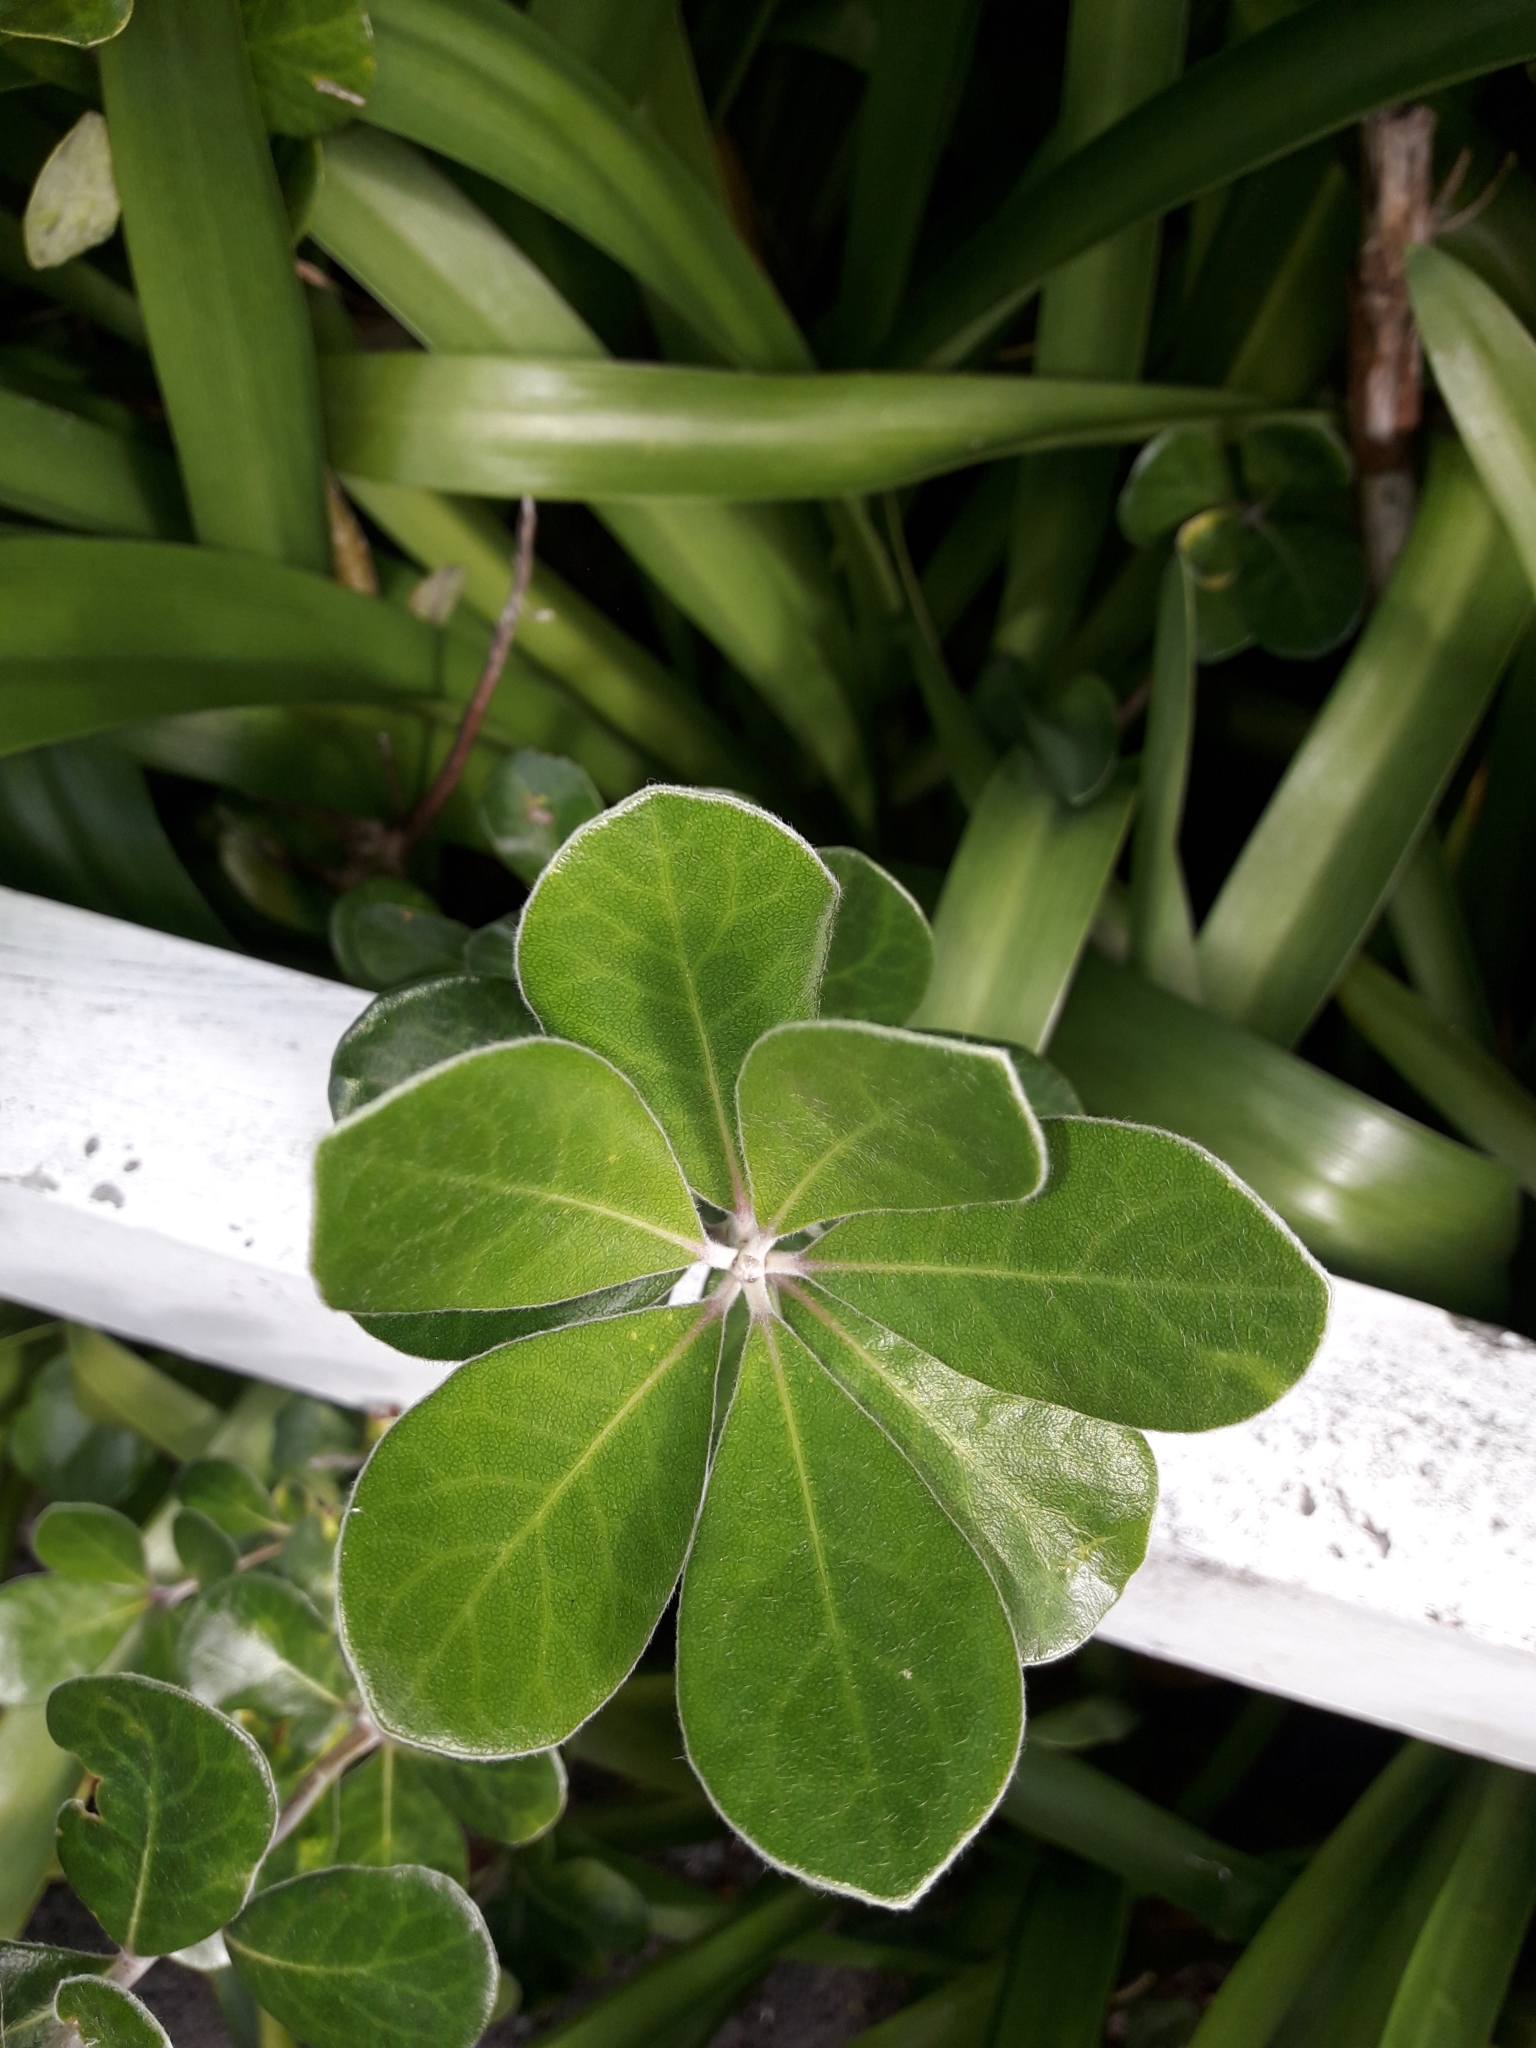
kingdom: Plantae
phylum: Tracheophyta
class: Magnoliopsida
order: Apiales
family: Pittosporaceae
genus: Pittosporum
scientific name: Pittosporum crassifolium
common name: Karo
